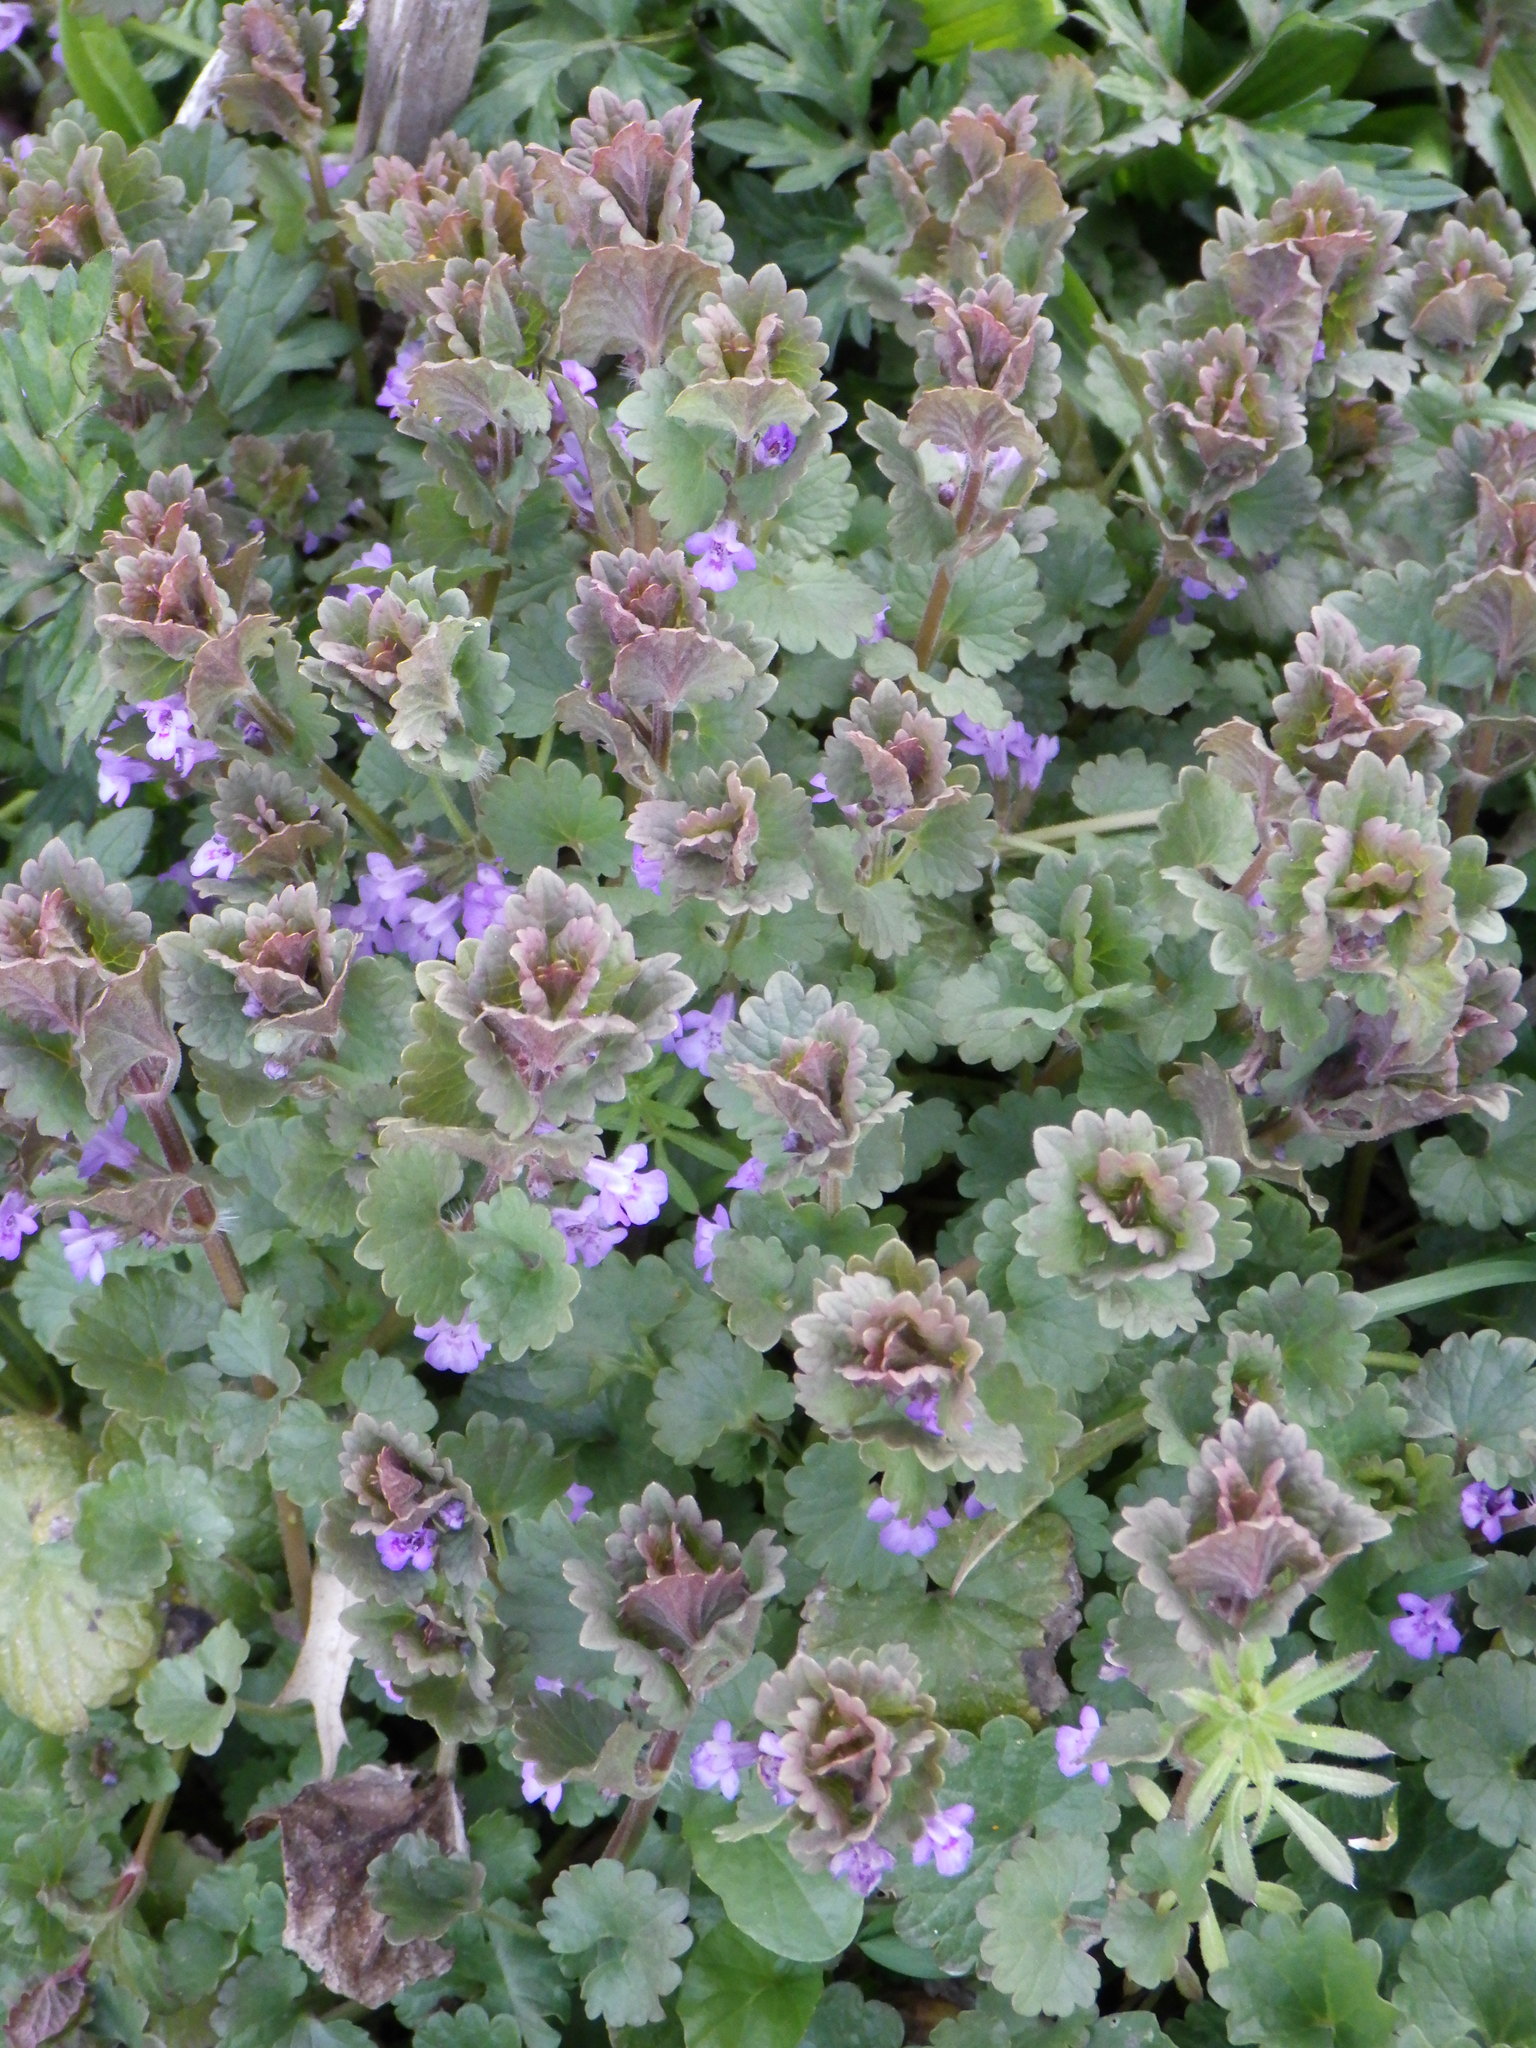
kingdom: Plantae
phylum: Tracheophyta
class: Magnoliopsida
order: Lamiales
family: Lamiaceae
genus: Glechoma
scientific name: Glechoma hederacea
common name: Ground ivy
